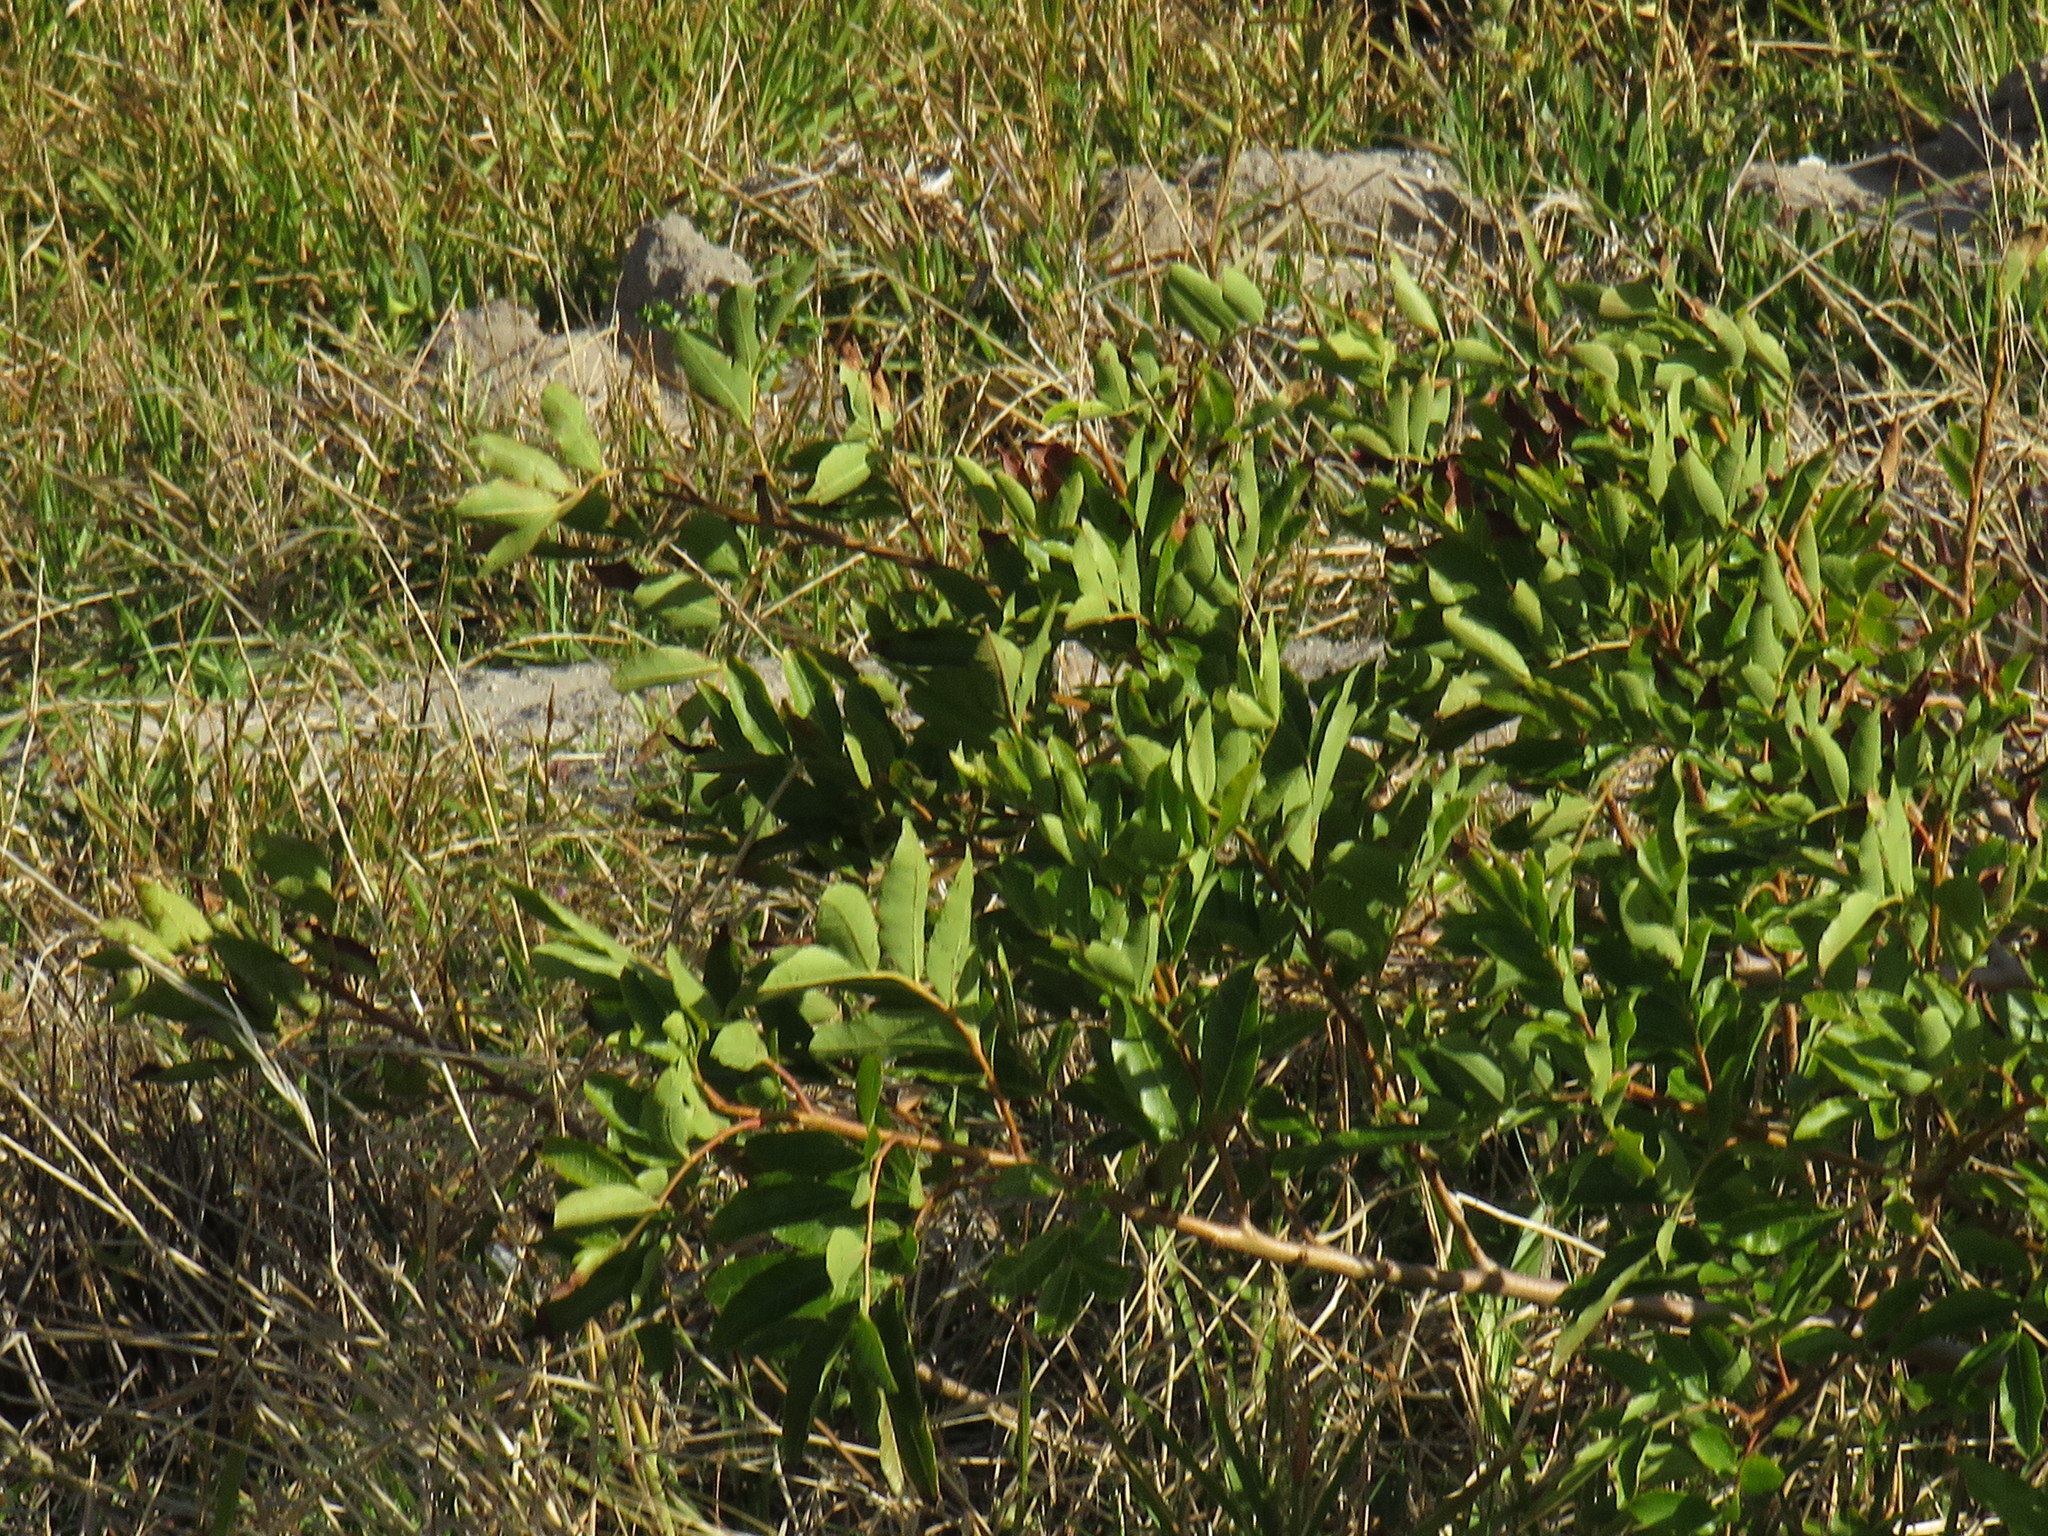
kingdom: Plantae
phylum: Tracheophyta
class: Magnoliopsida
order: Sapindales
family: Anacardiaceae
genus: Schinus
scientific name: Schinus terebinthifolia
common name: Brazilian peppertree
